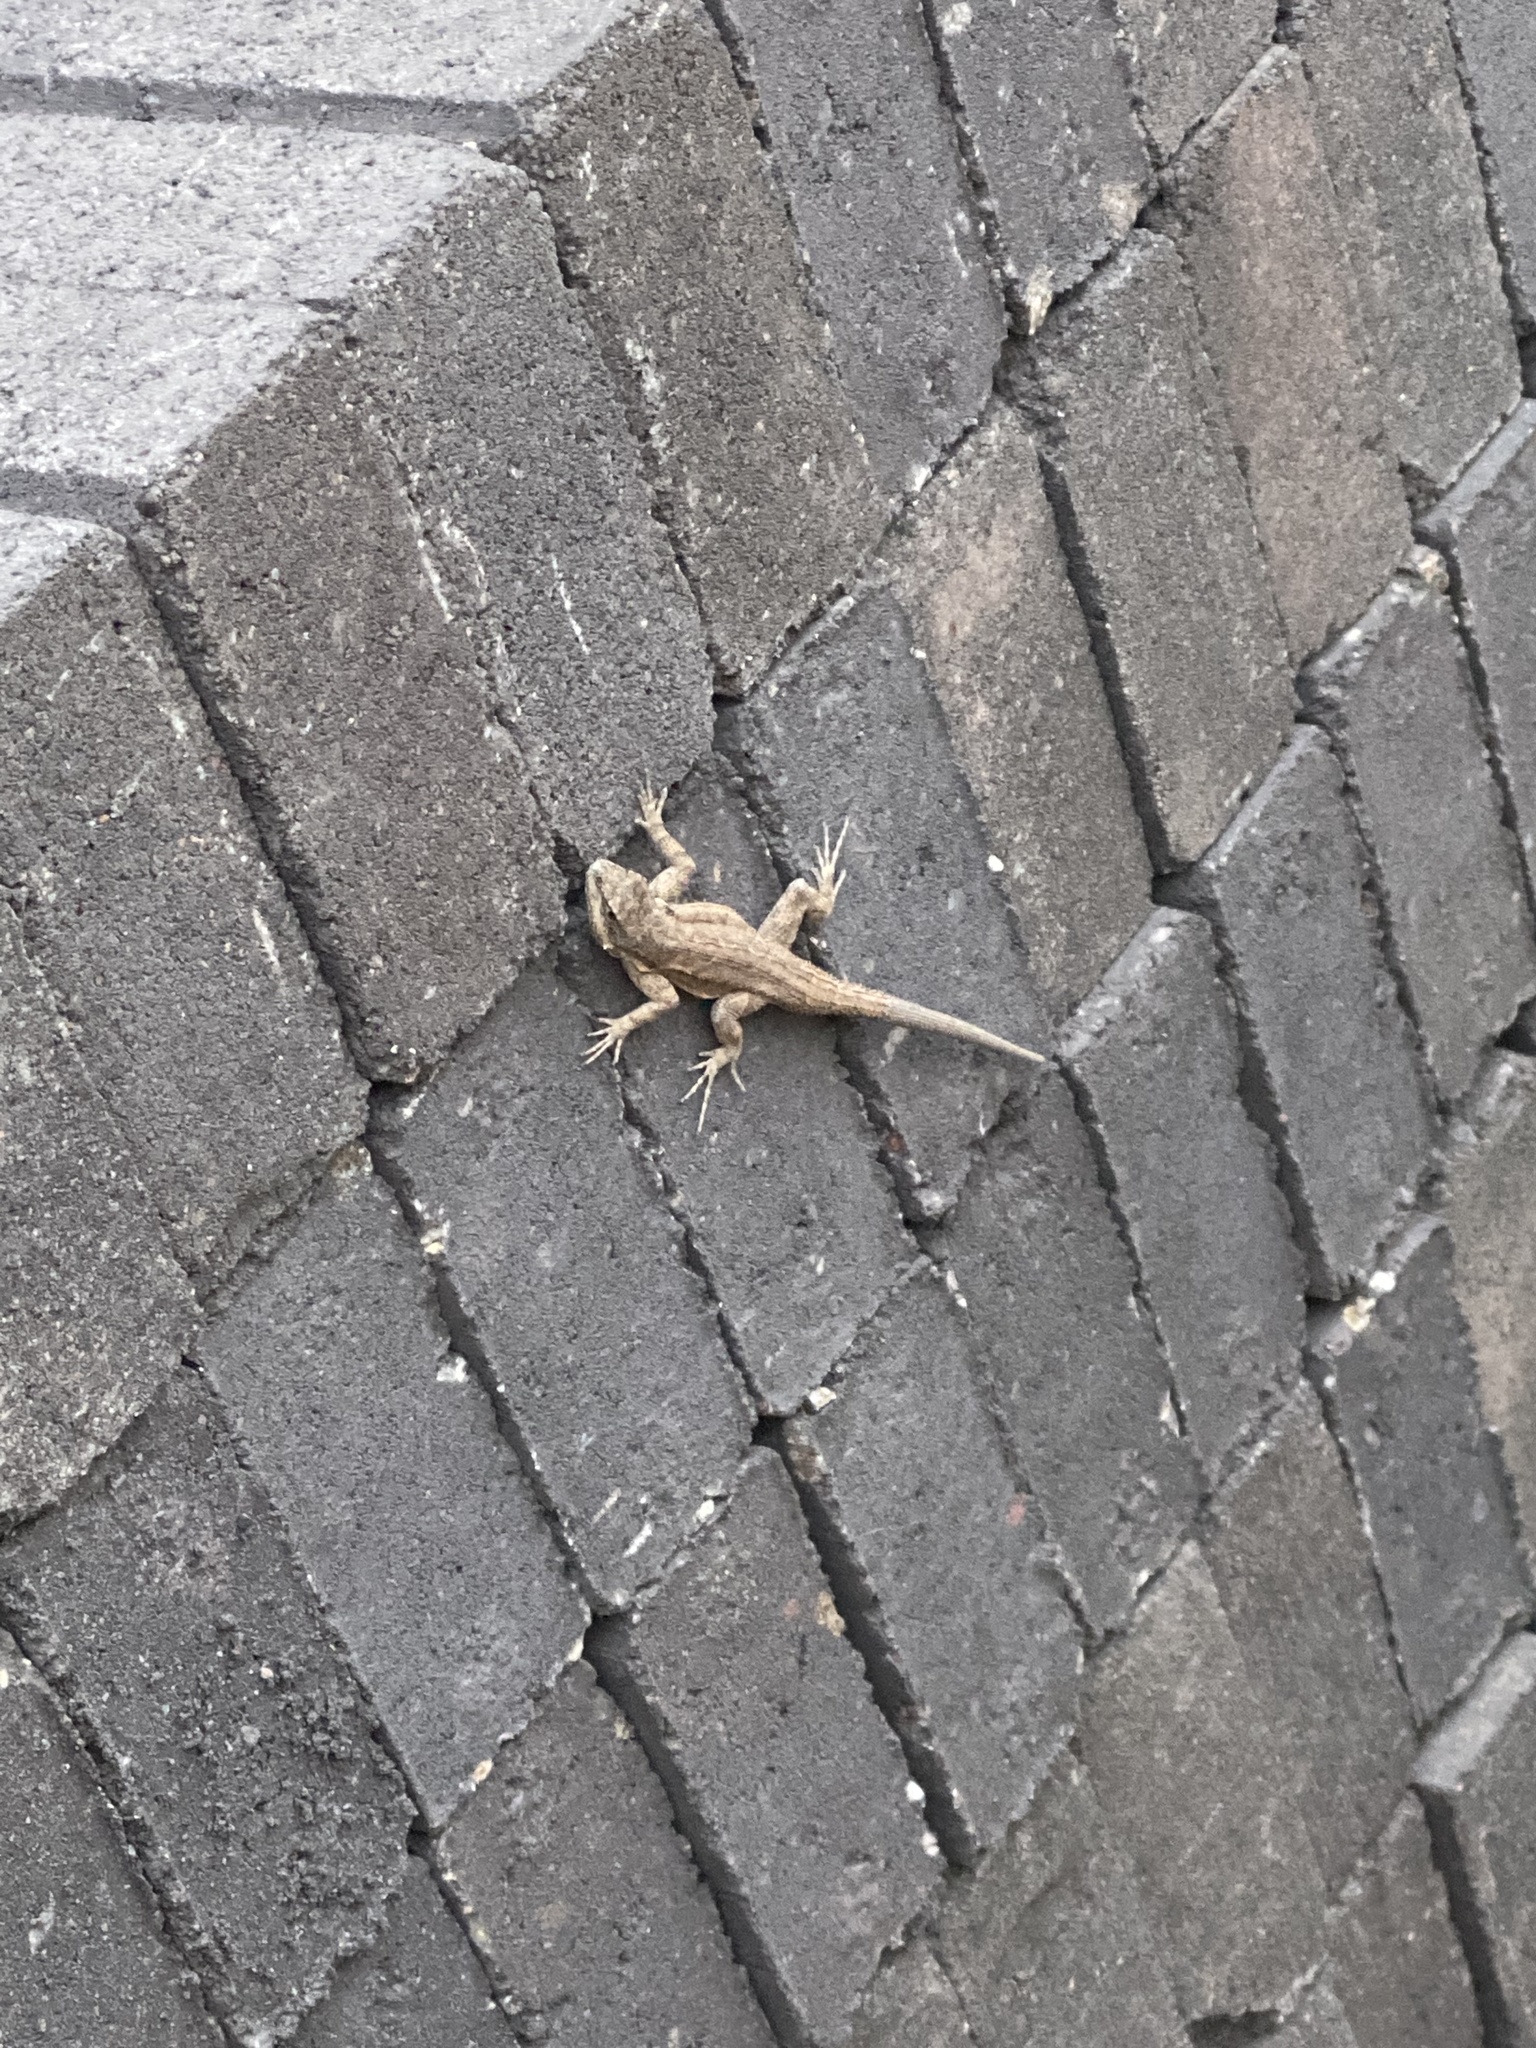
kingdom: Animalia
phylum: Chordata
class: Squamata
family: Phrynosomatidae
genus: Urosaurus
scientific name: Urosaurus ornatus
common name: Ornate tree lizard
